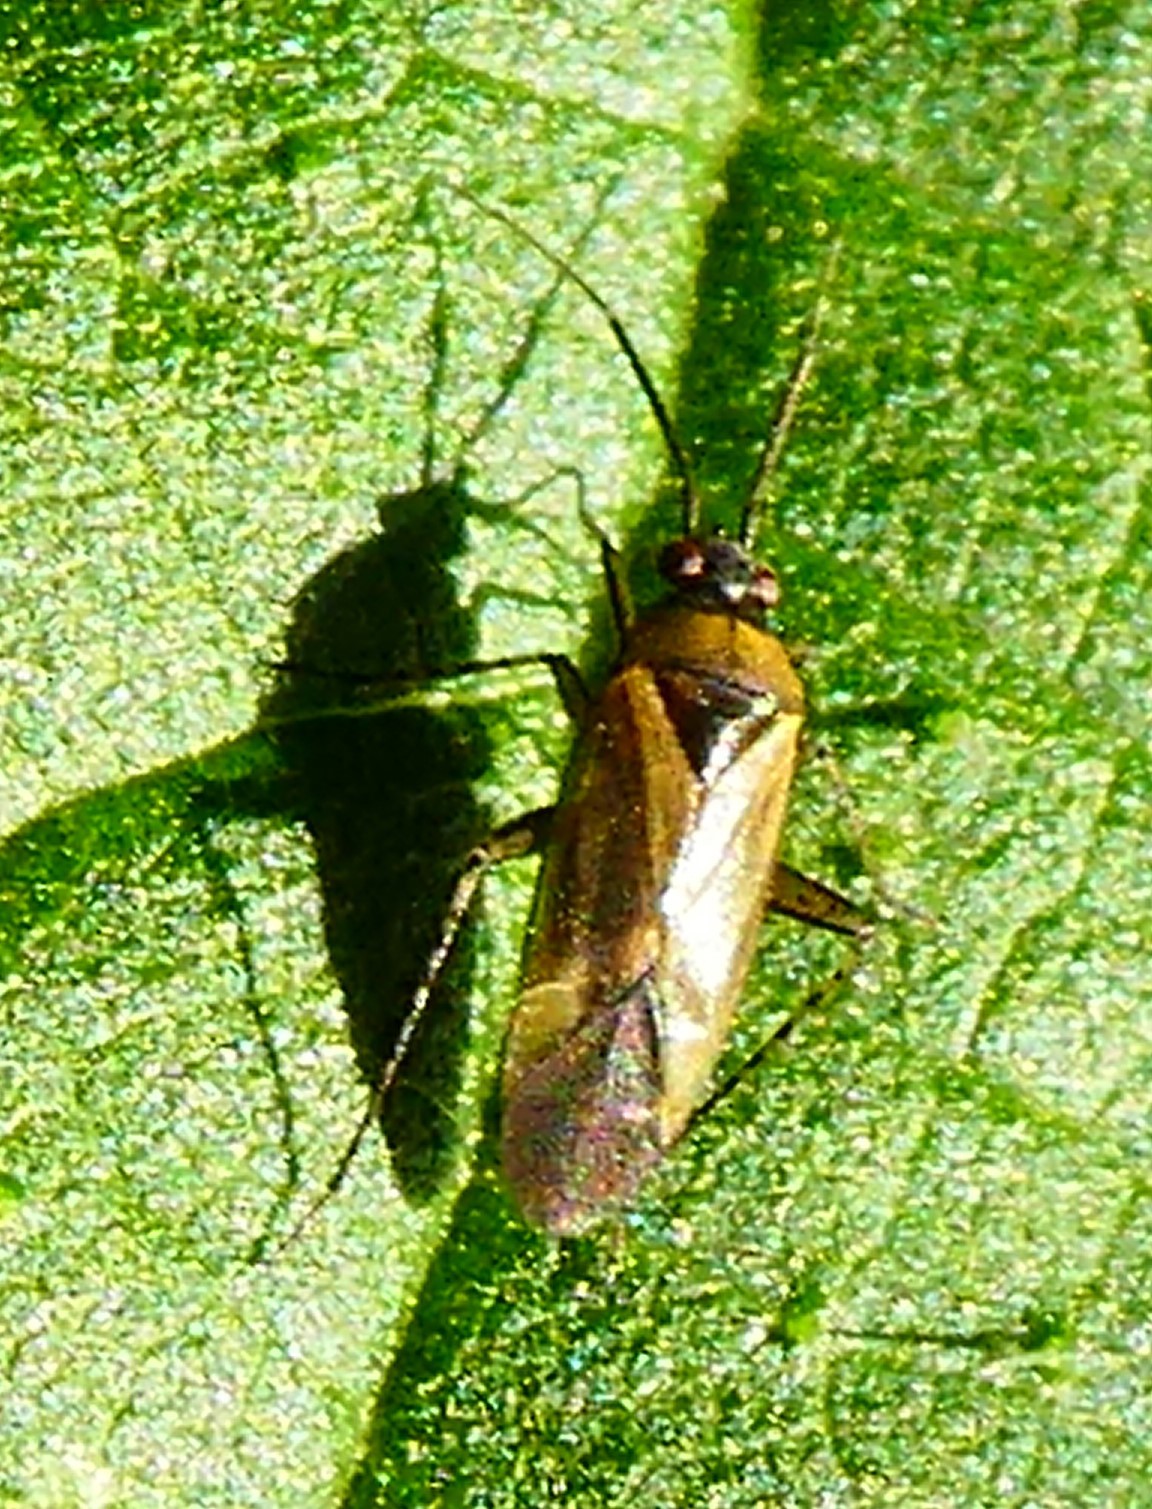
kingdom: Animalia
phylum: Arthropoda
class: Insecta
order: Hemiptera
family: Miridae
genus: Plagiognathus
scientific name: Plagiognathus arbustorum
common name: Plant bug
